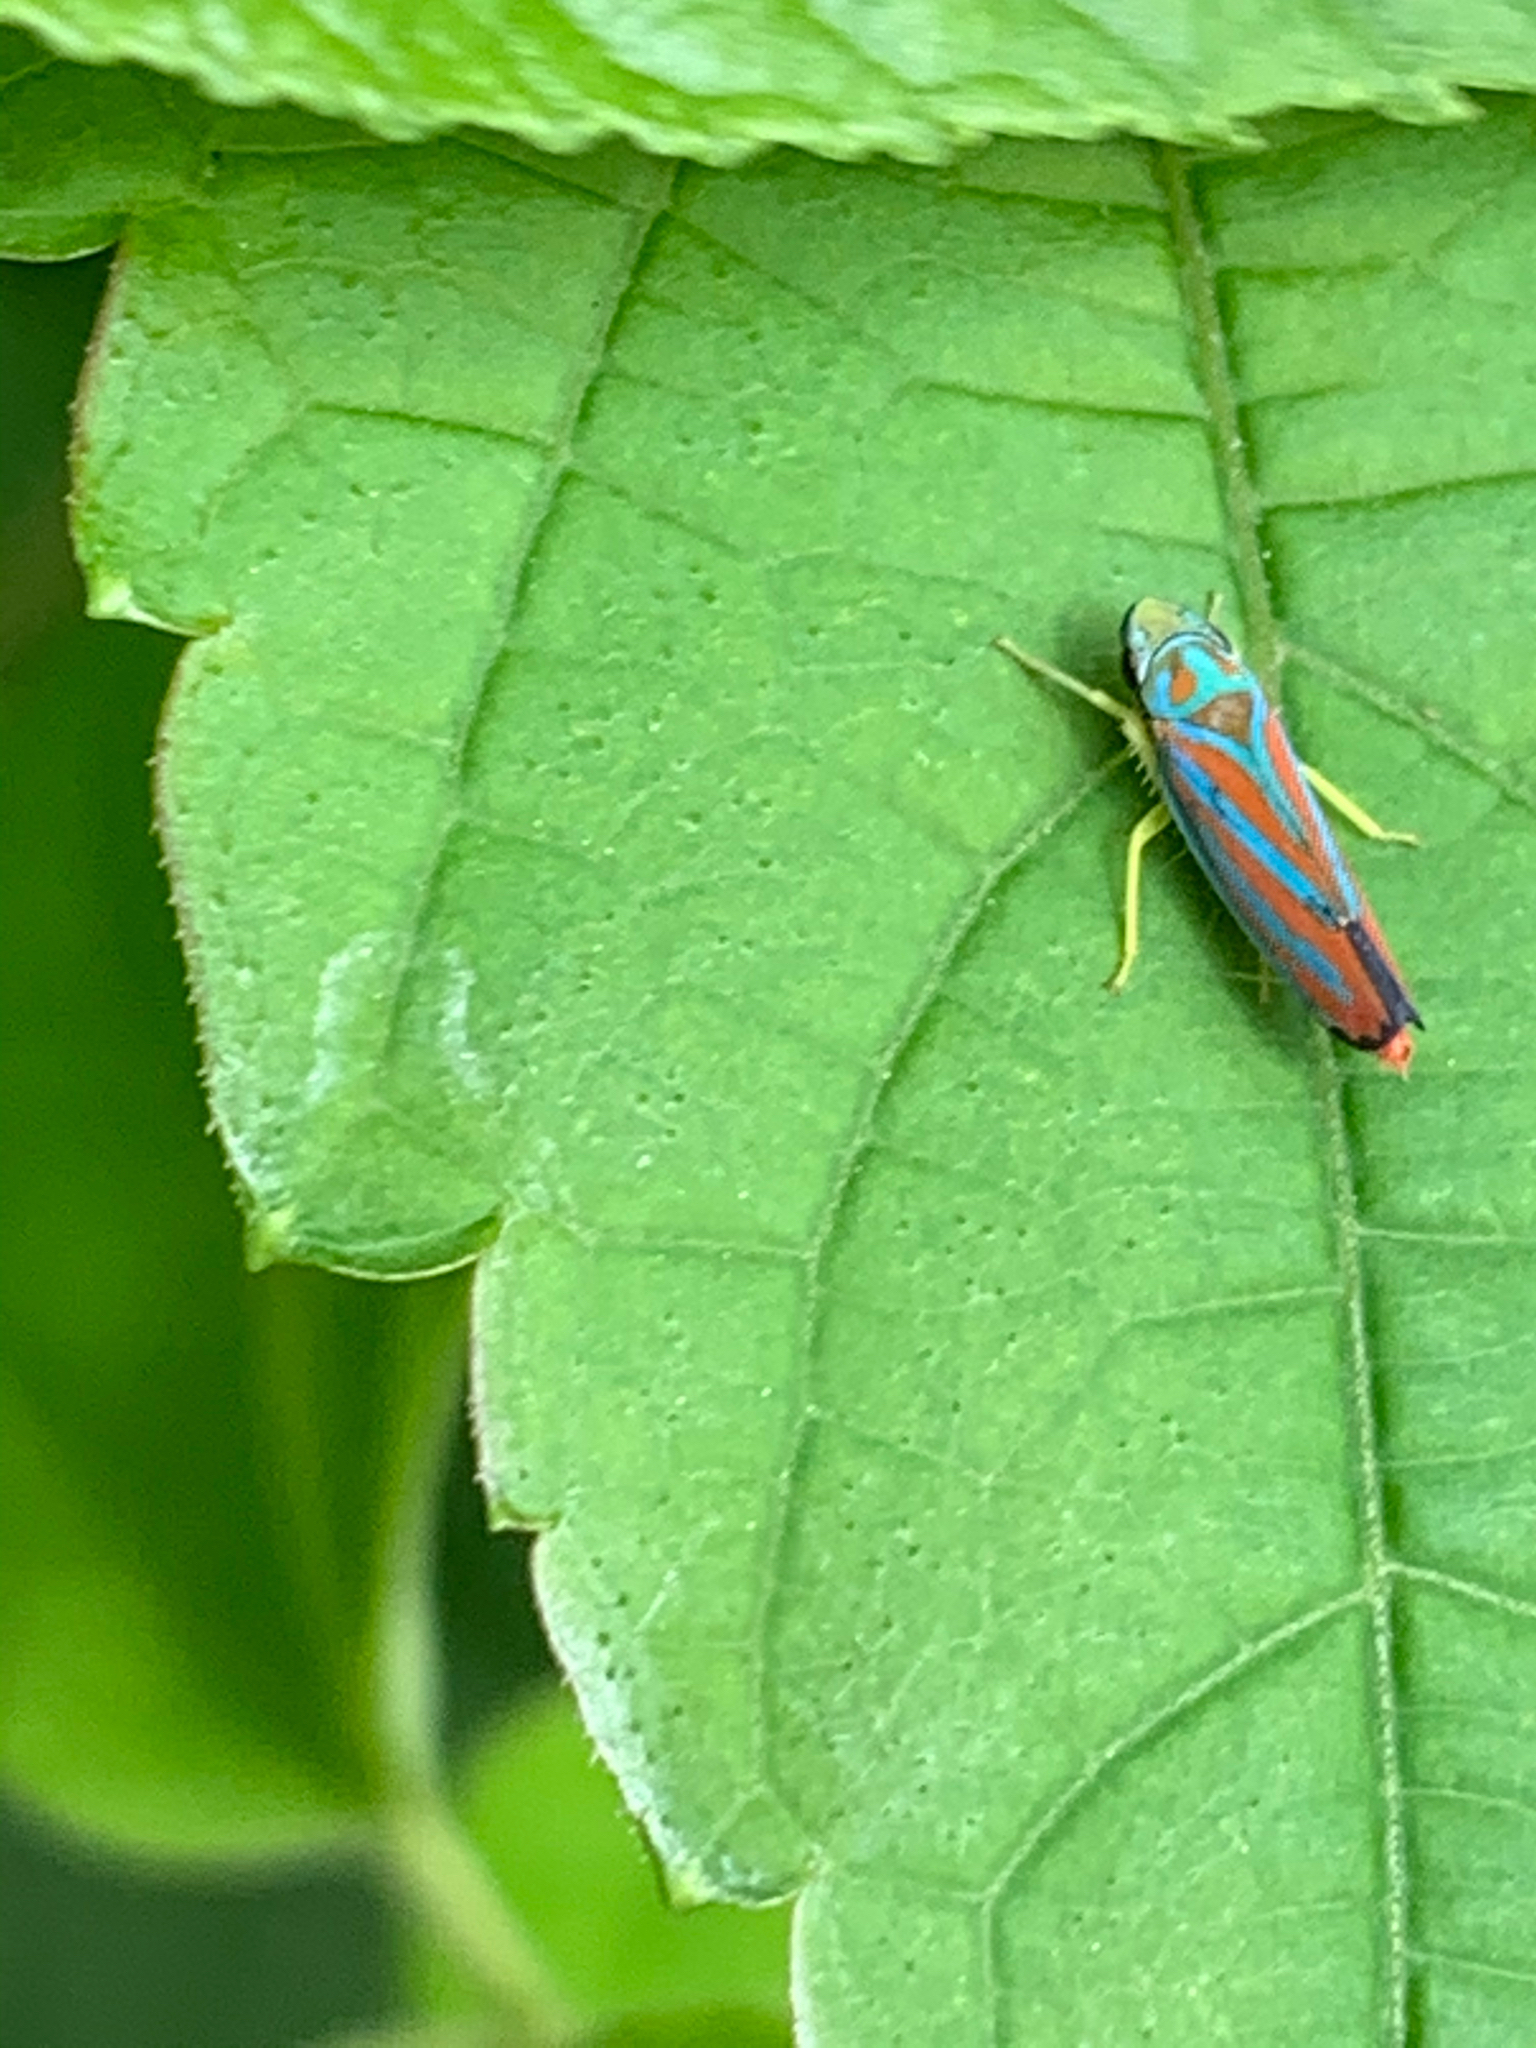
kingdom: Animalia
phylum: Arthropoda
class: Insecta
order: Hemiptera
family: Cicadellidae
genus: Graphocephala
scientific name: Graphocephala coccinea
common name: Candy-striped leafhopper
